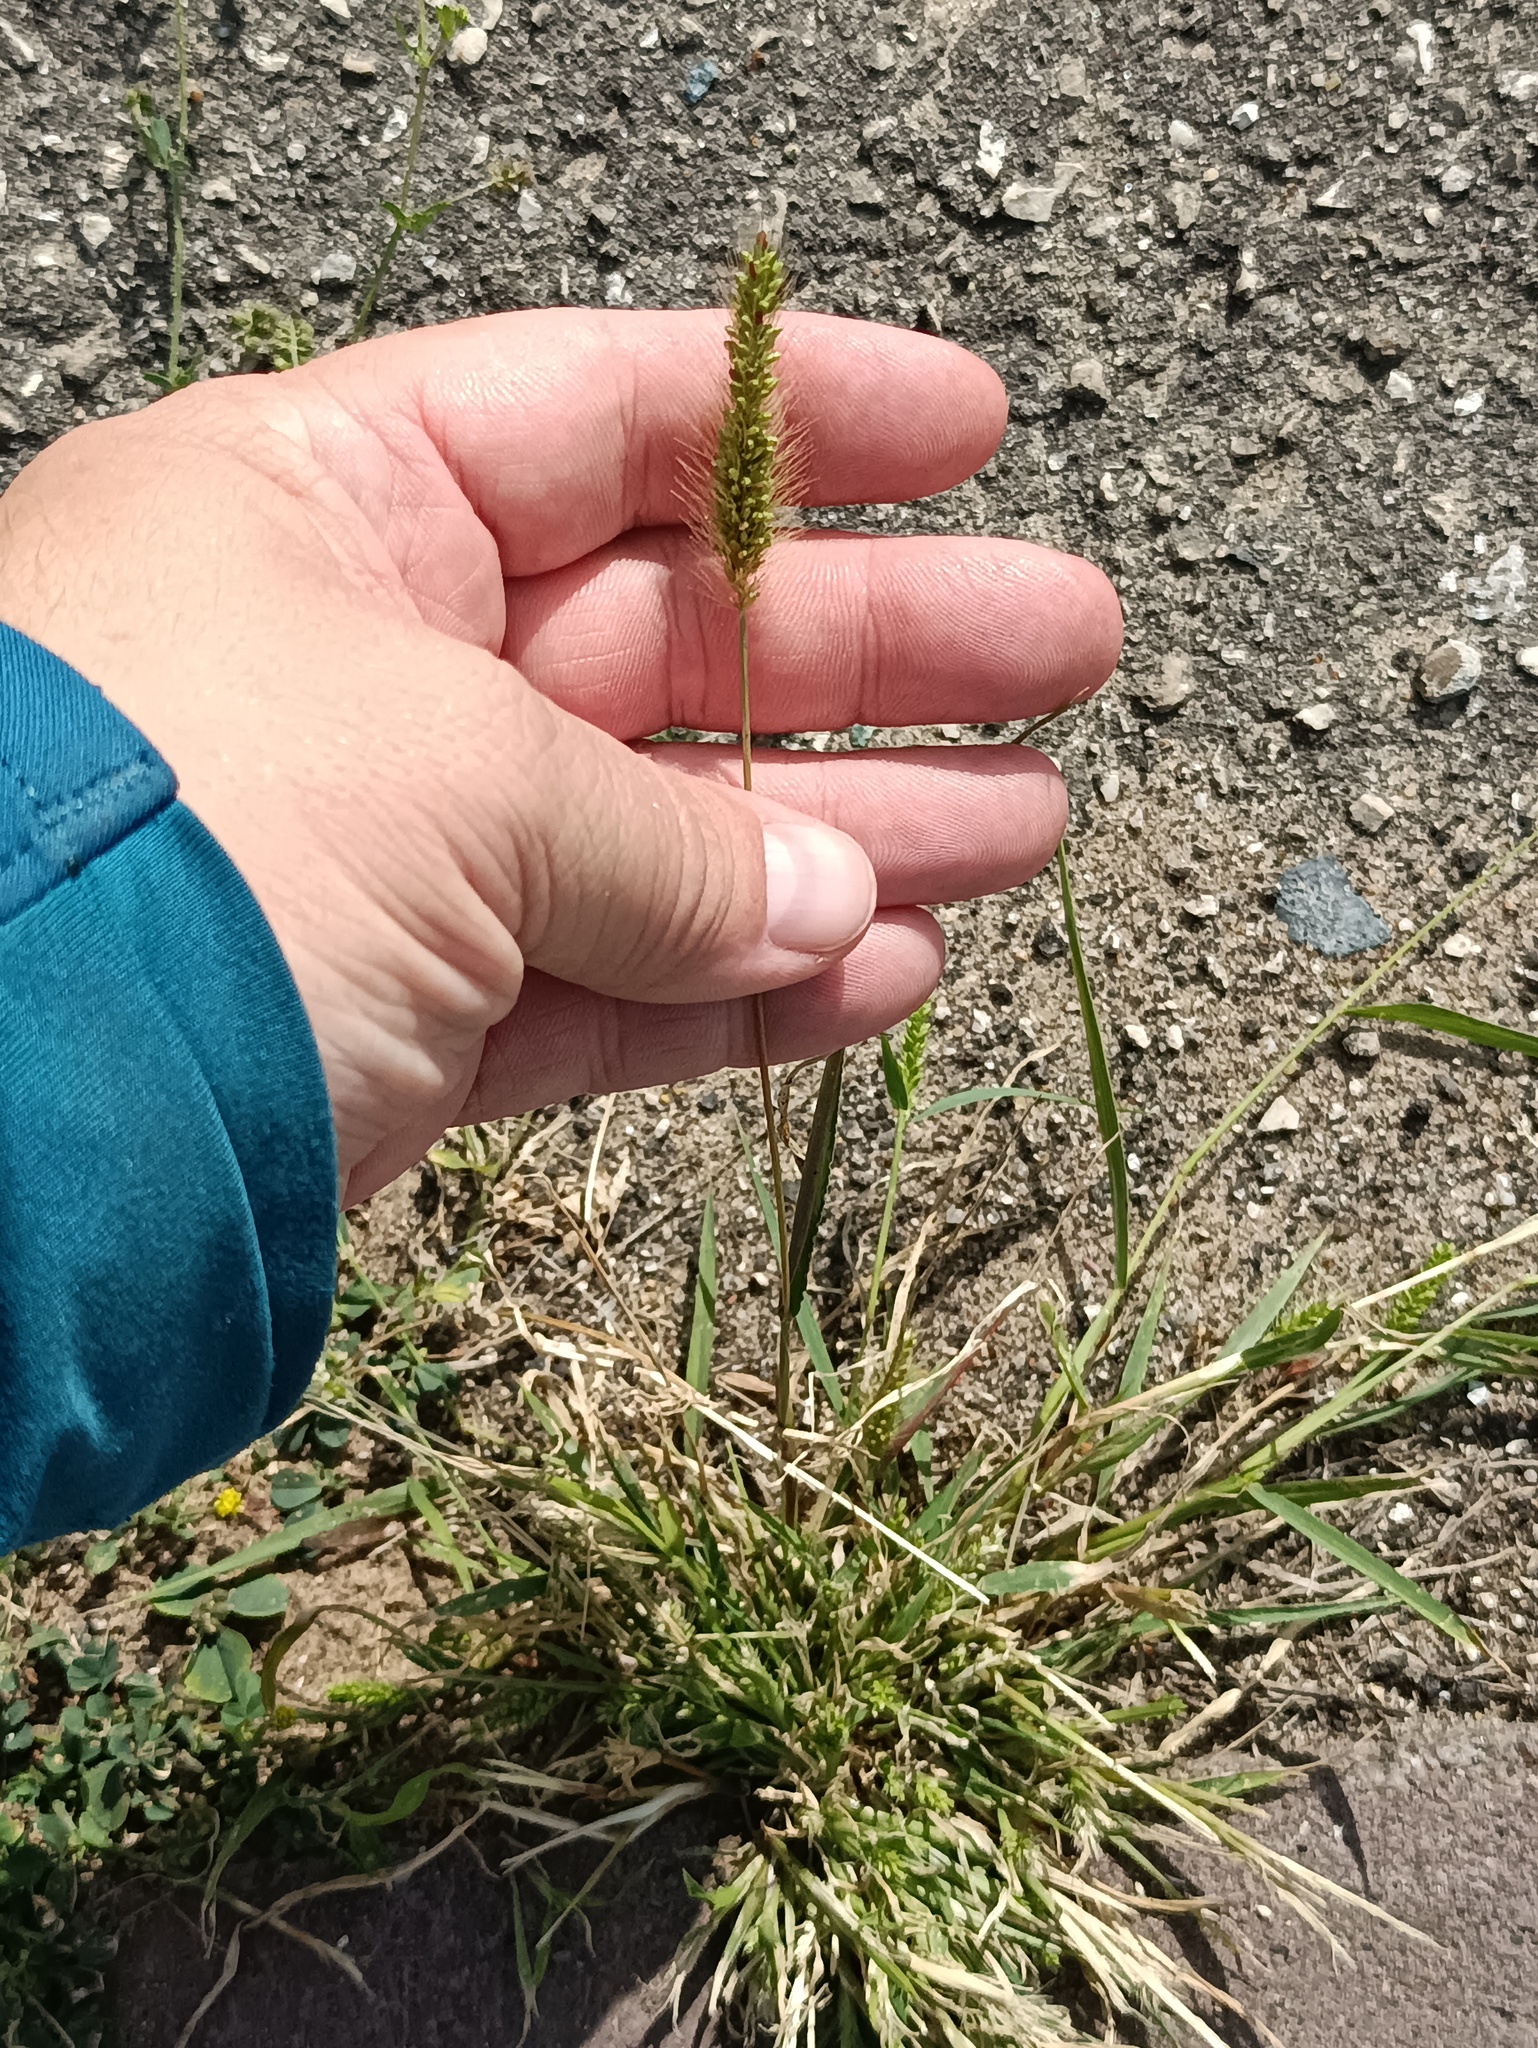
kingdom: Plantae
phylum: Tracheophyta
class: Liliopsida
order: Poales
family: Poaceae
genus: Setaria
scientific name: Setaria viridis
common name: Green bristlegrass
